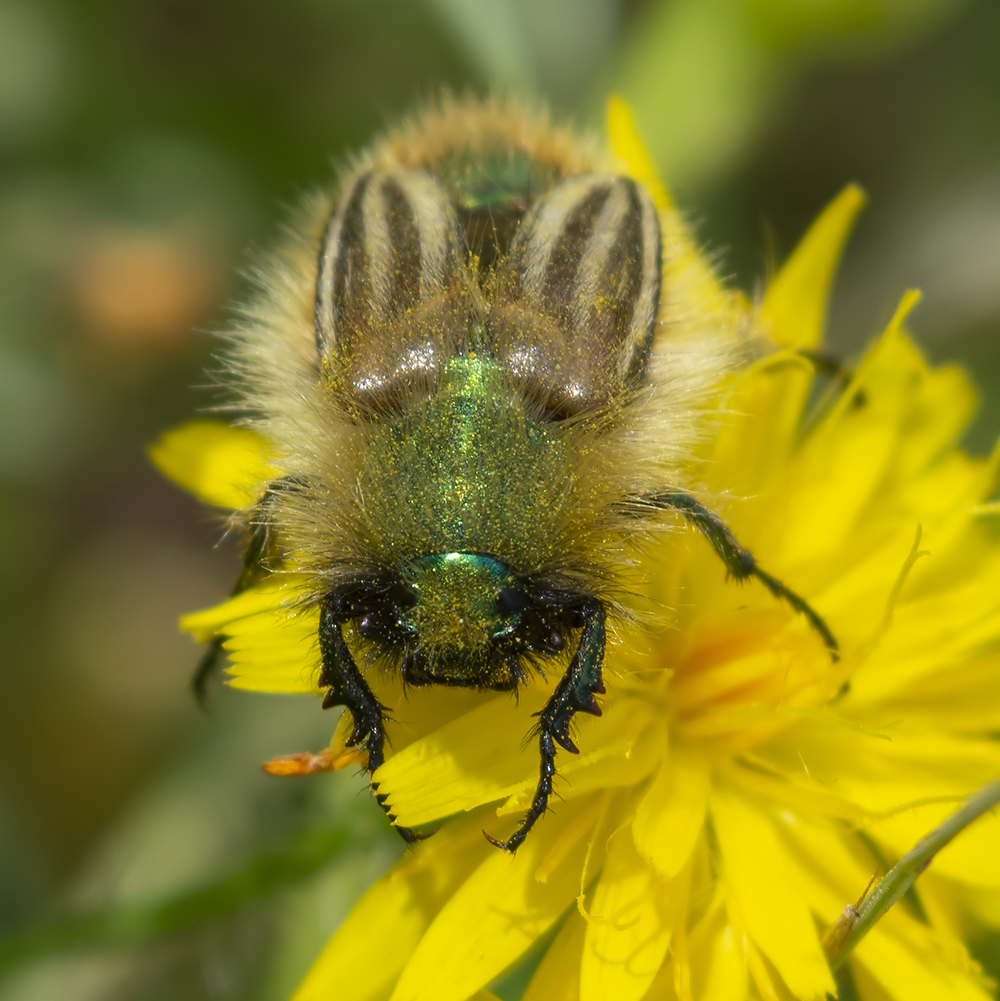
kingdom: Animalia
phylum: Arthropoda
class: Insecta
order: Coleoptera
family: Glaphyridae
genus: Eulasia
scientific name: Eulasia pareyssei
